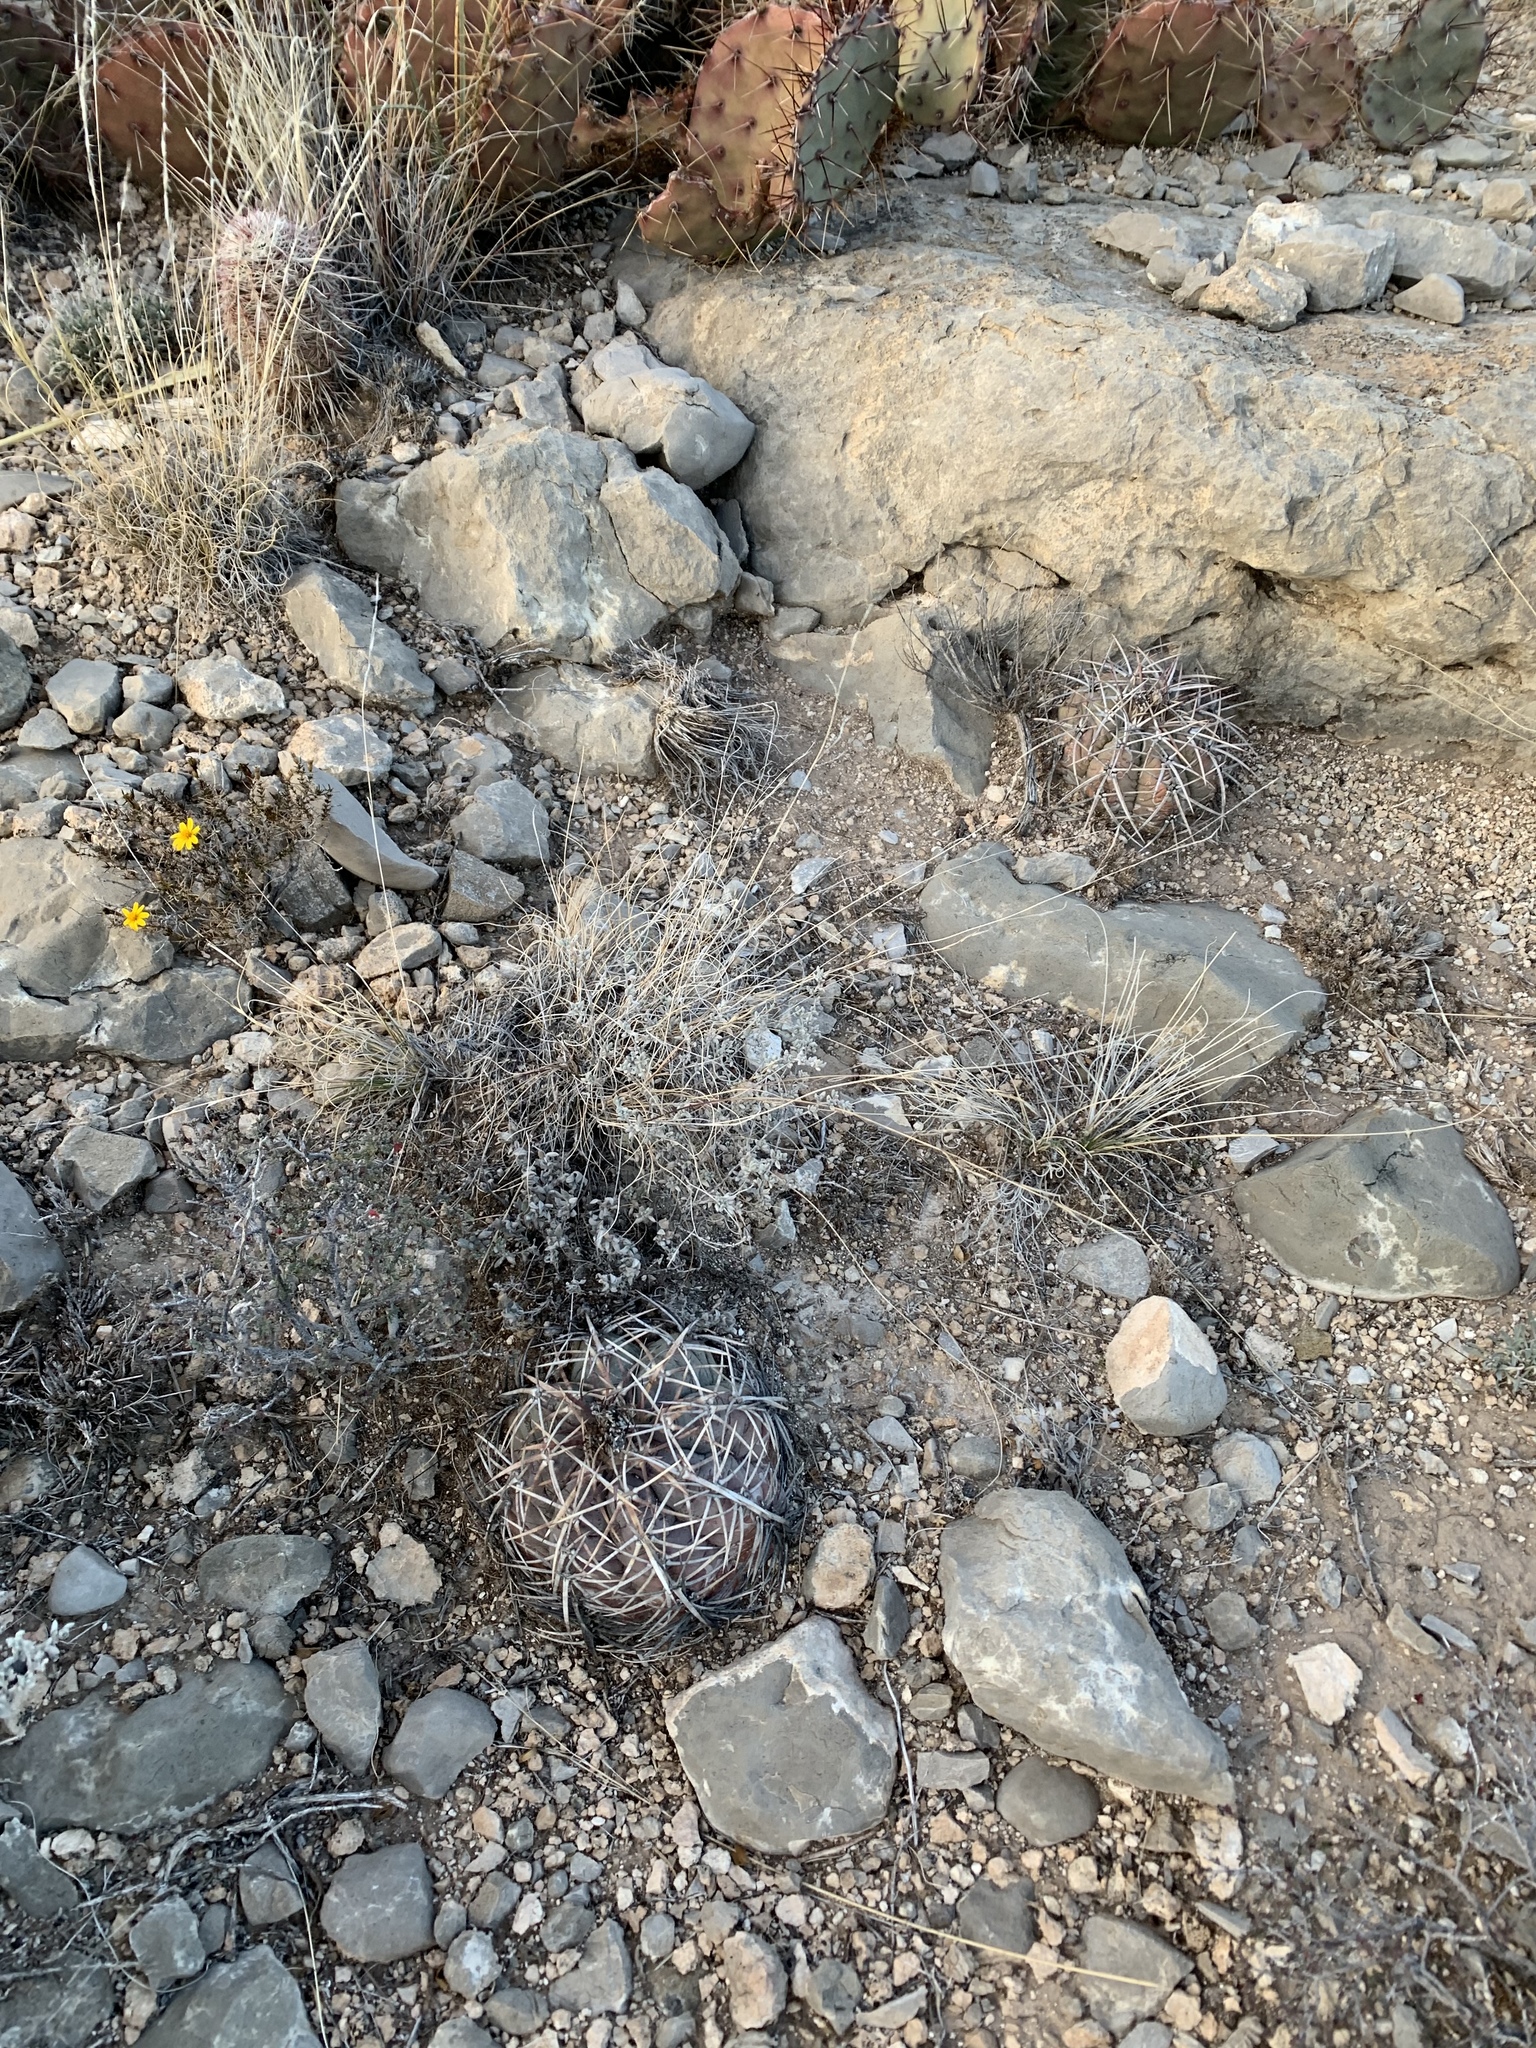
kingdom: Plantae
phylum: Tracheophyta
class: Magnoliopsida
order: Caryophyllales
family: Cactaceae
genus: Echinocereus
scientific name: Echinocereus viridiflorus
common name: Nylon hedgehog cactus
